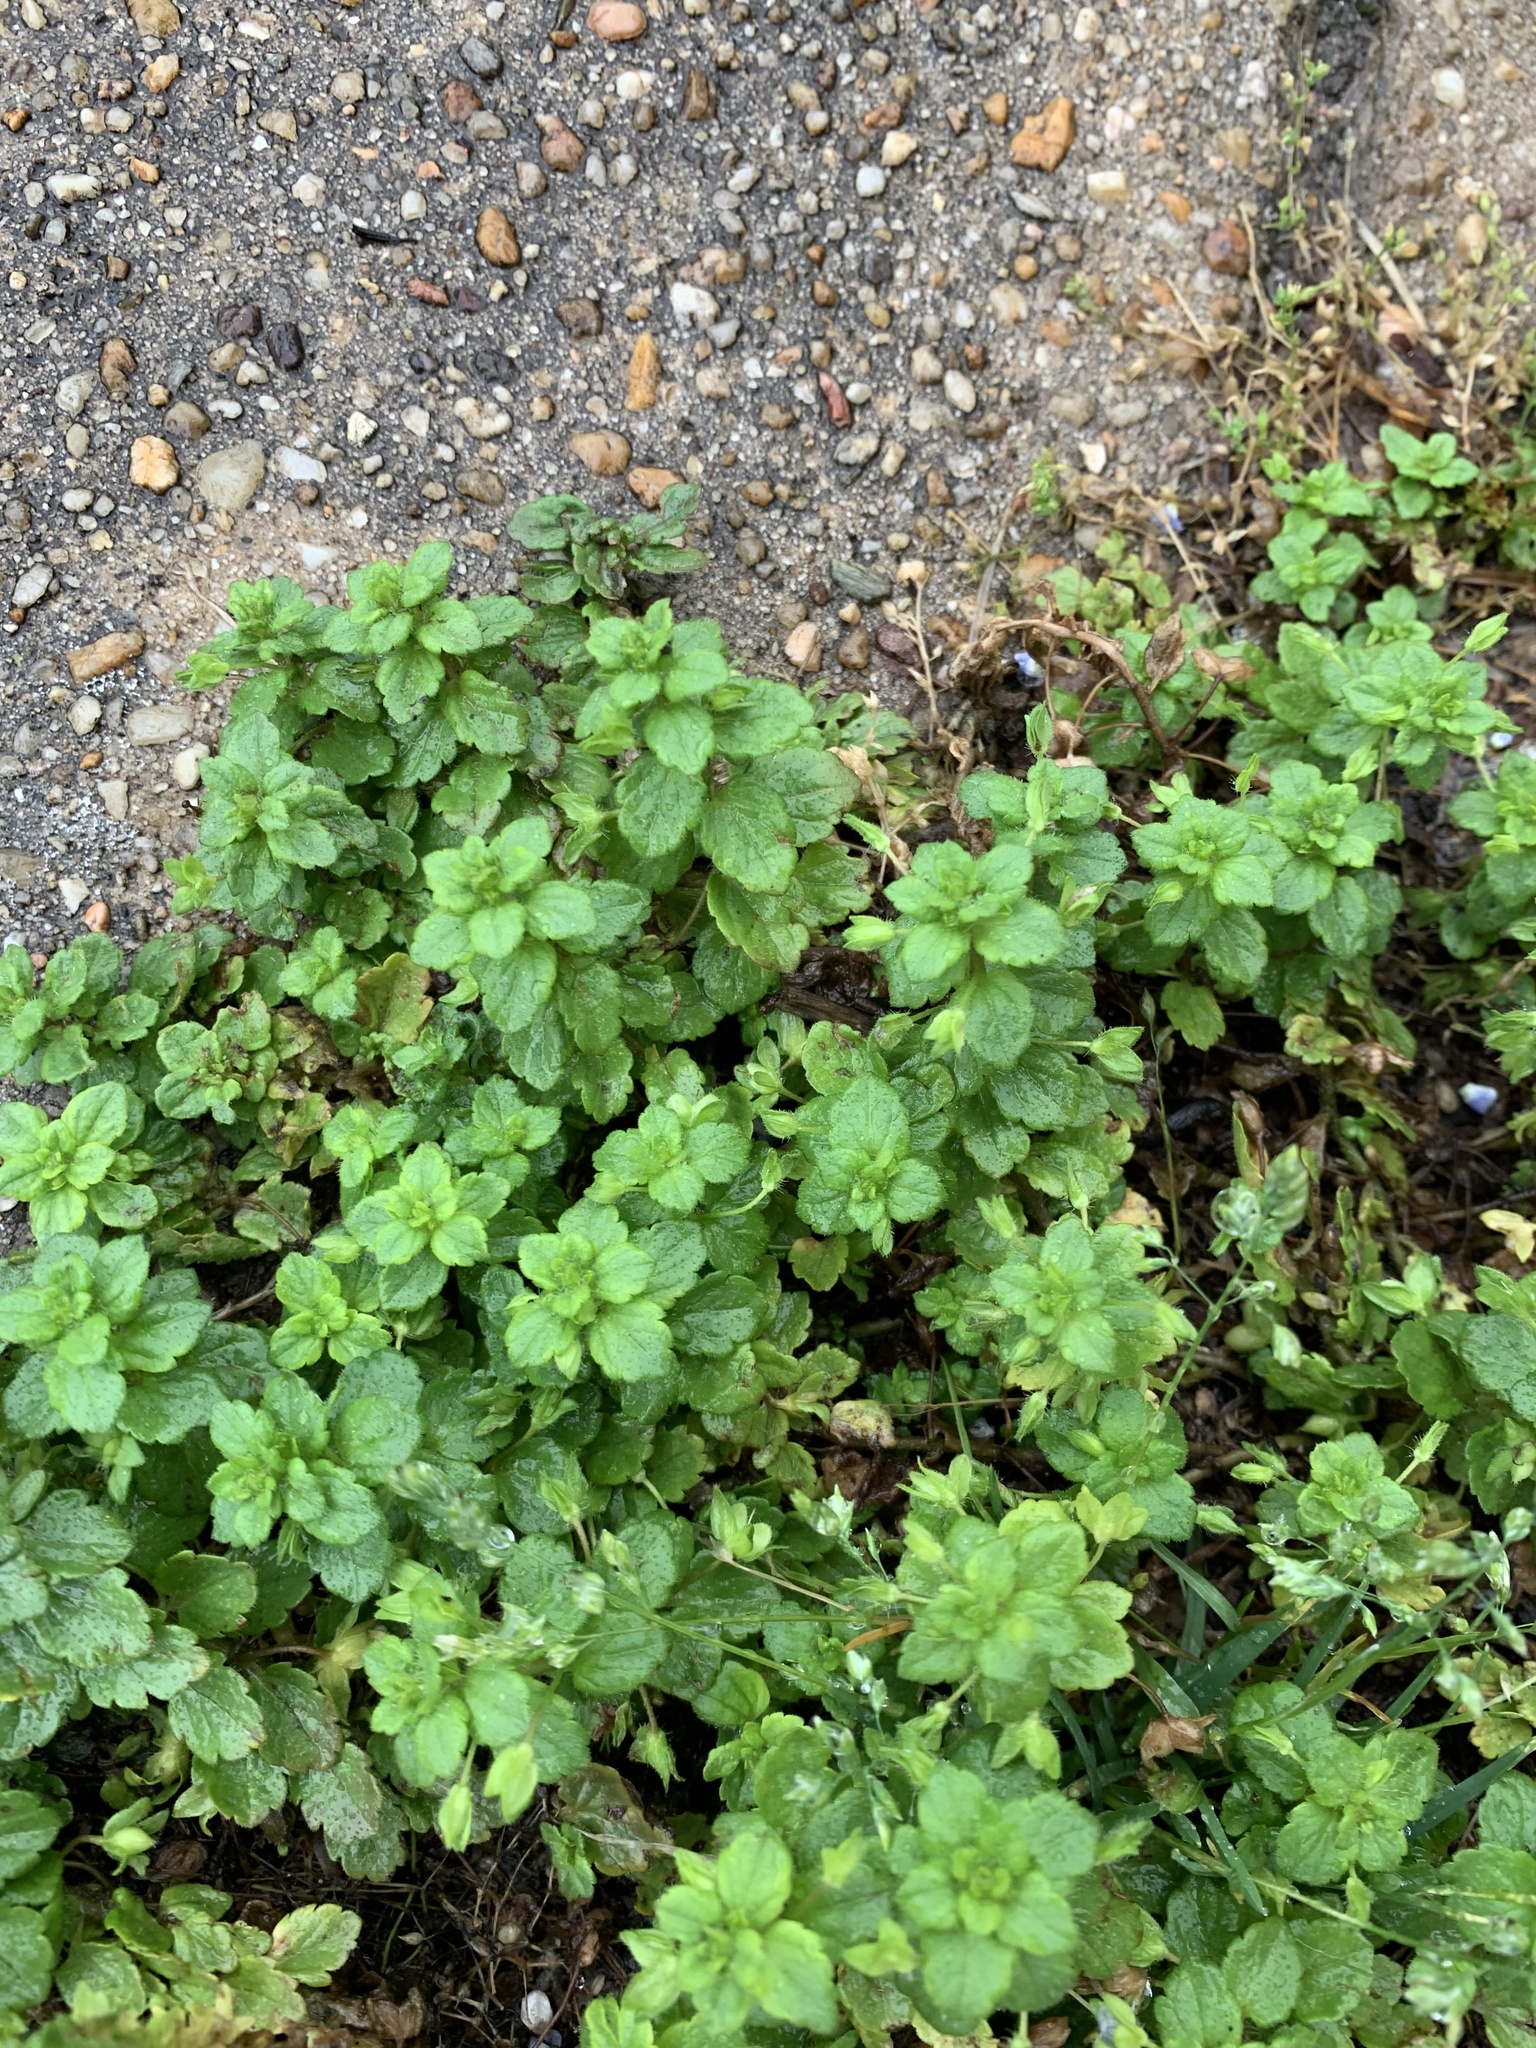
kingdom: Plantae
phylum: Tracheophyta
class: Magnoliopsida
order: Lamiales
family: Plantaginaceae
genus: Veronica
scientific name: Veronica persica
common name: Common field-speedwell
